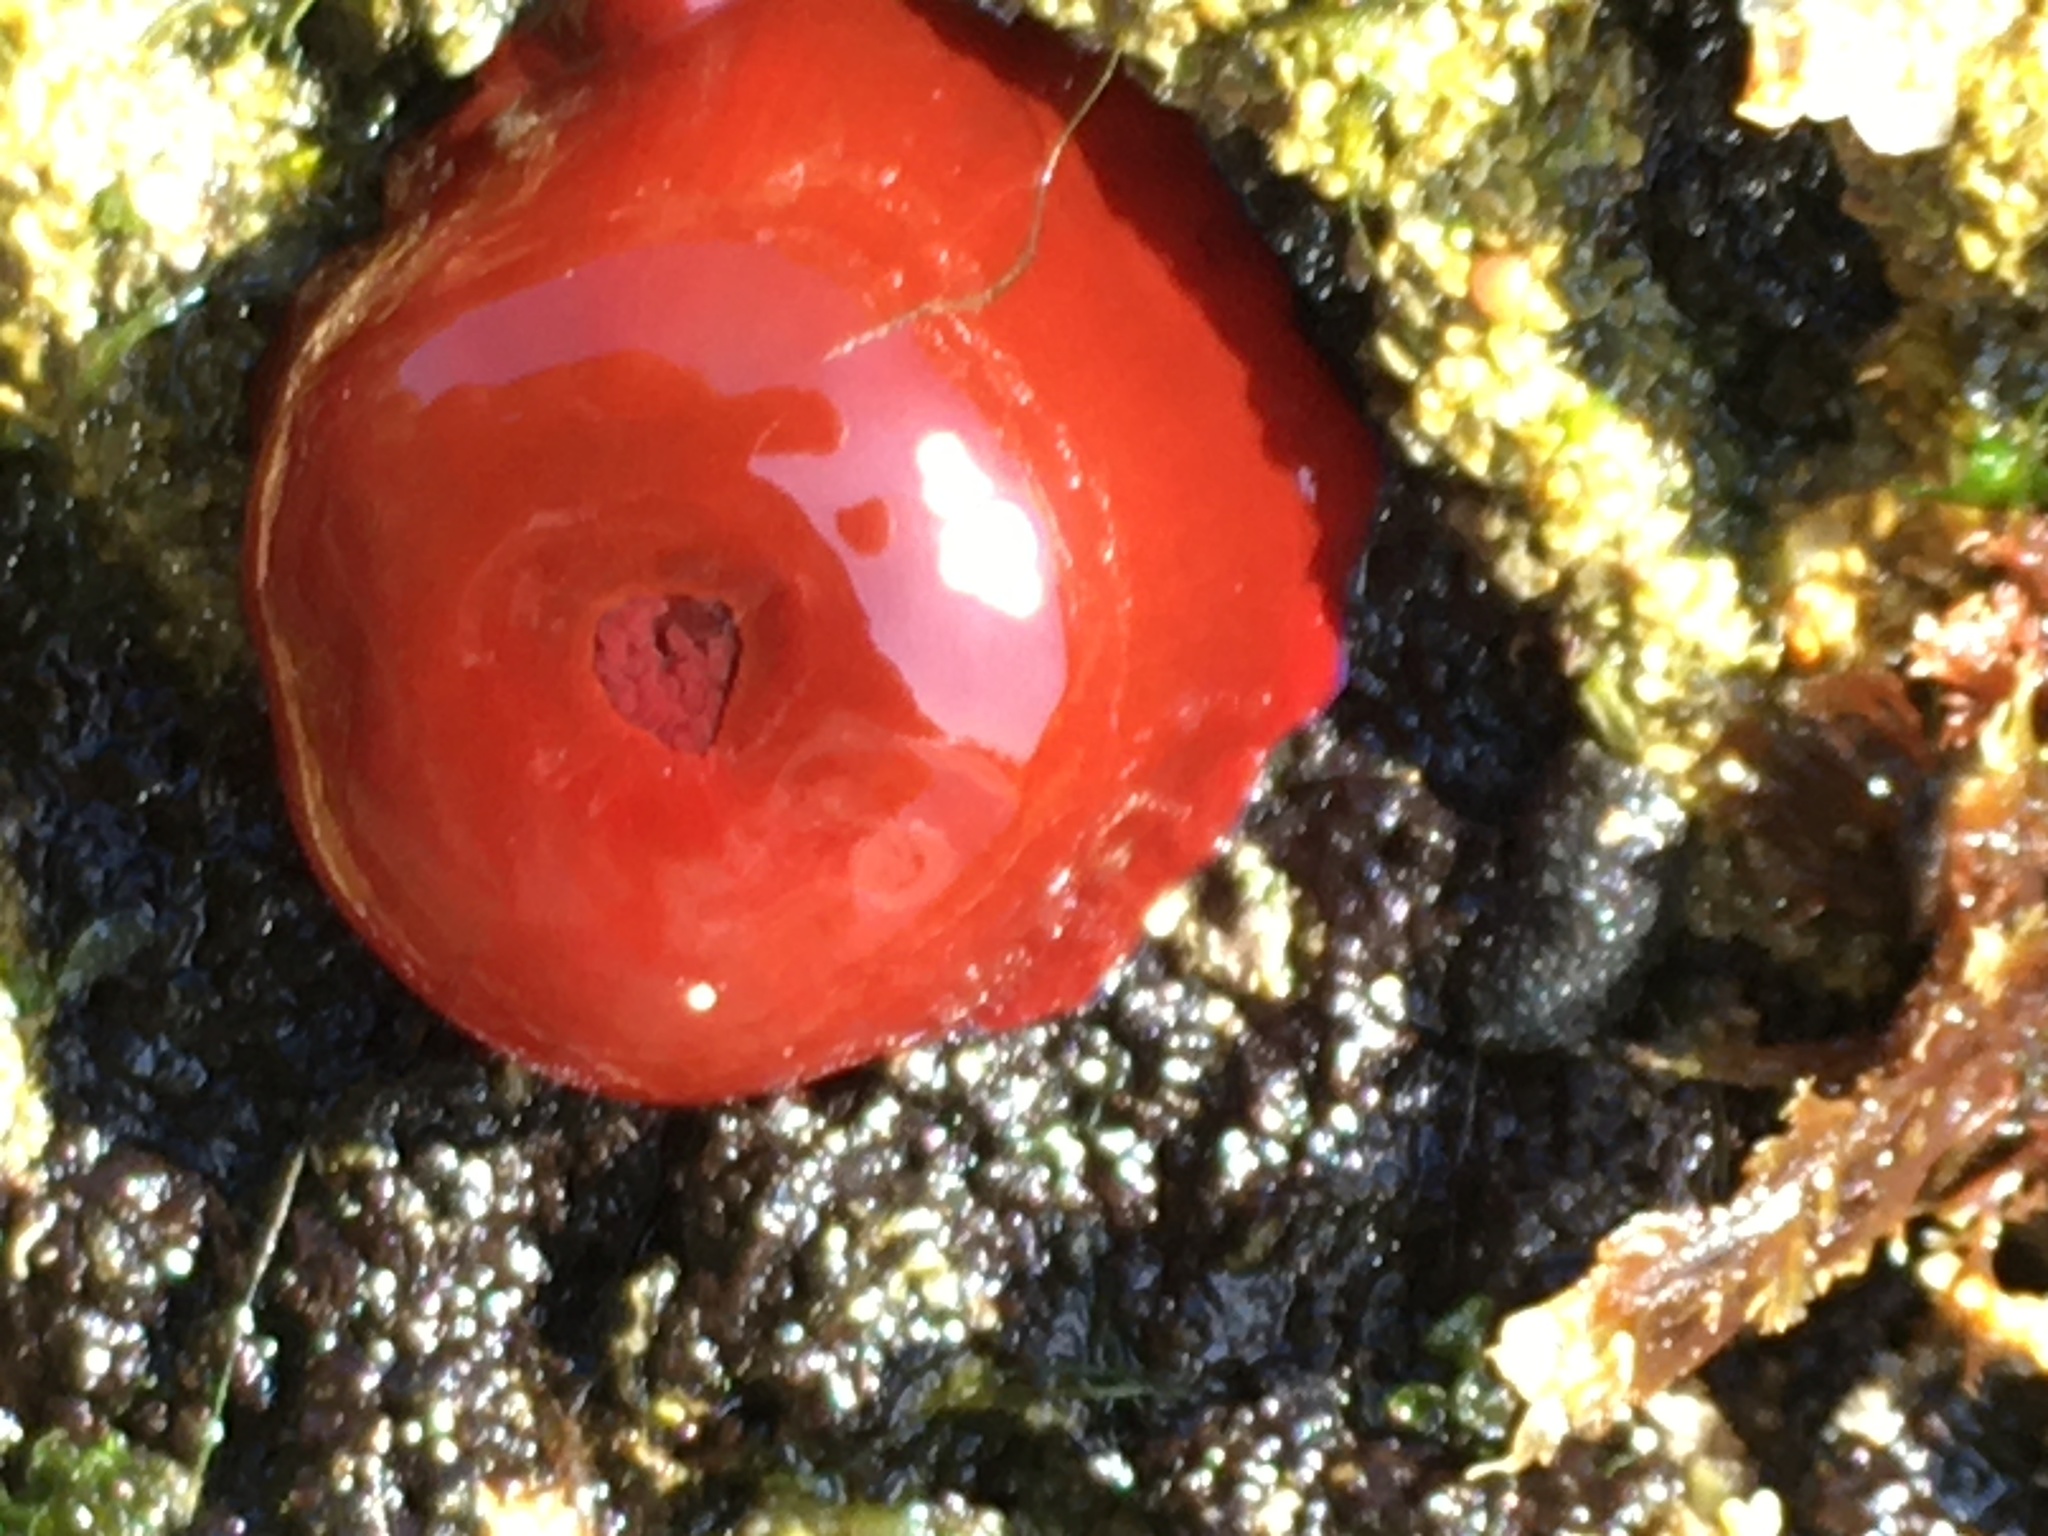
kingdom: Animalia
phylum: Cnidaria
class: Anthozoa
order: Actiniaria
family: Actiniidae
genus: Actinia
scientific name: Actinia equina
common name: Beadlet anemone
